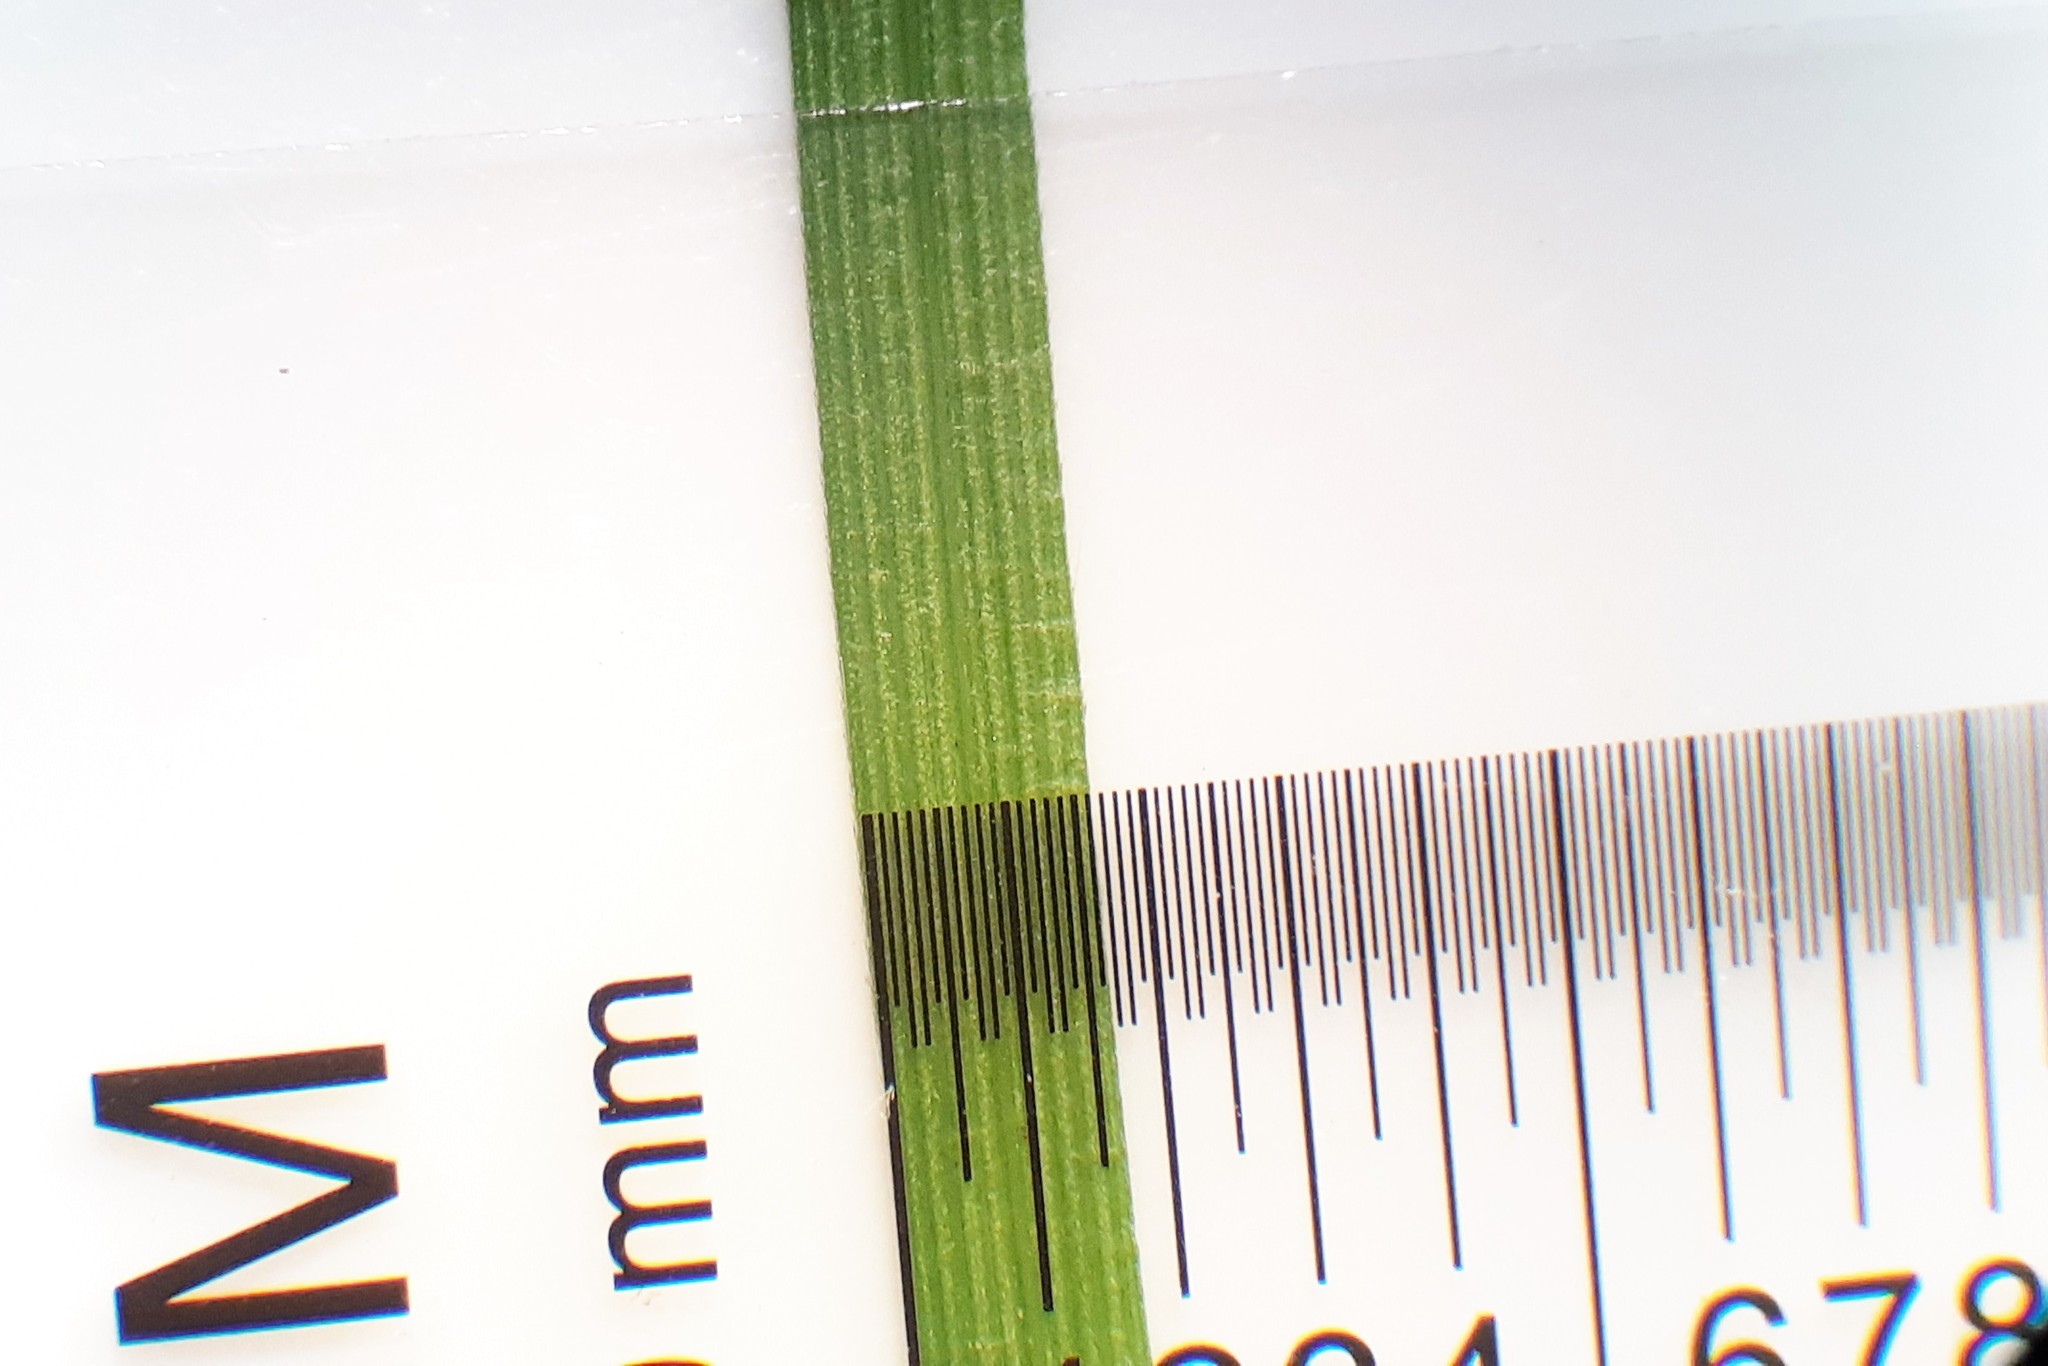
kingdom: Plantae
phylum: Tracheophyta
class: Liliopsida
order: Poales
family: Cyperaceae
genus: Carex
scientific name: Carex interior
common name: Inland sedge
